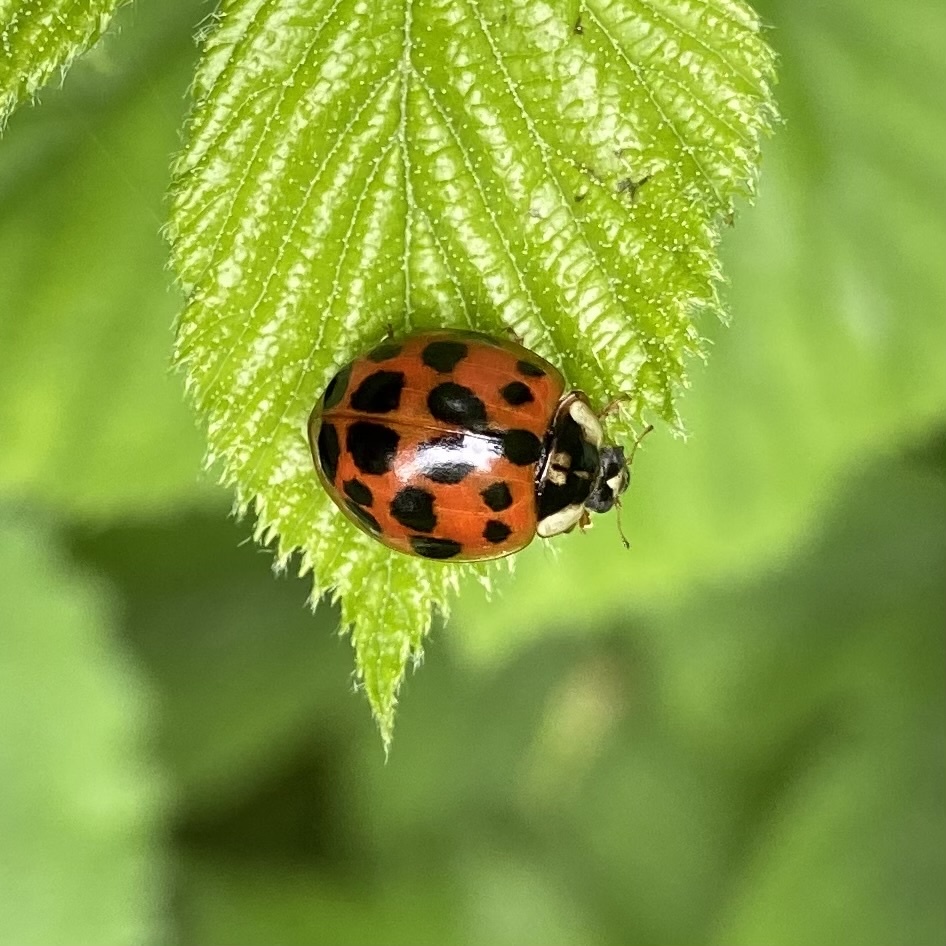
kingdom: Animalia
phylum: Arthropoda
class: Insecta
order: Coleoptera
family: Coccinellidae
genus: Harmonia
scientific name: Harmonia axyridis
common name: Harlequin ladybird
